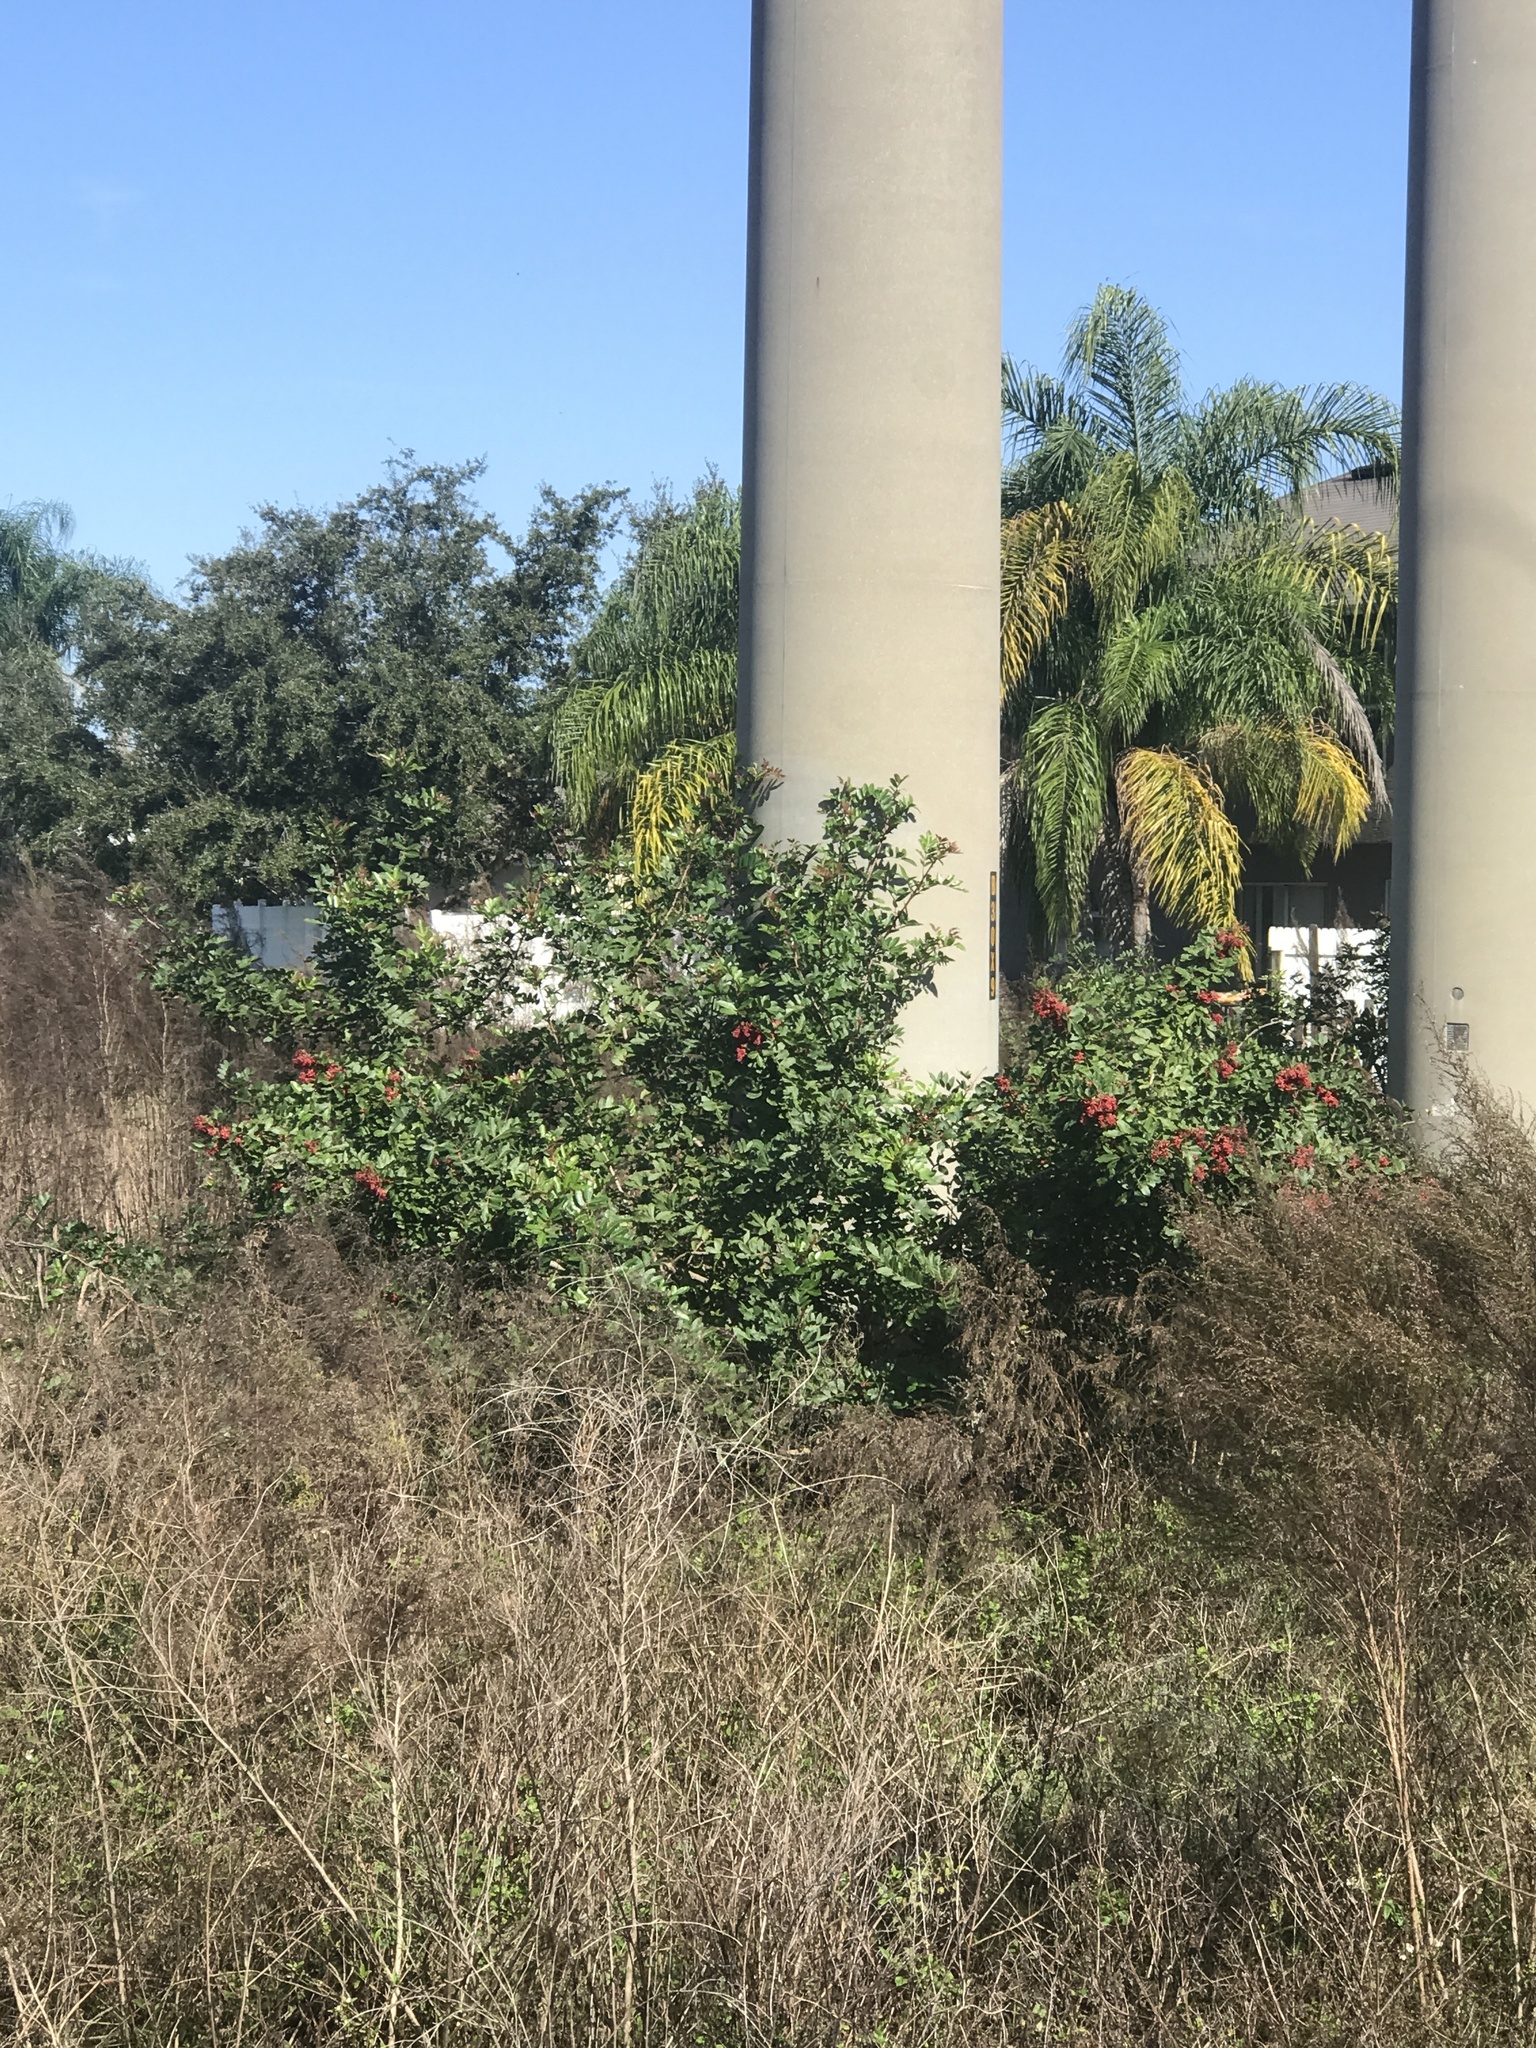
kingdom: Plantae
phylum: Tracheophyta
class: Magnoliopsida
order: Sapindales
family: Anacardiaceae
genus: Schinus
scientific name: Schinus terebinthifolia
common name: Brazilian peppertree
